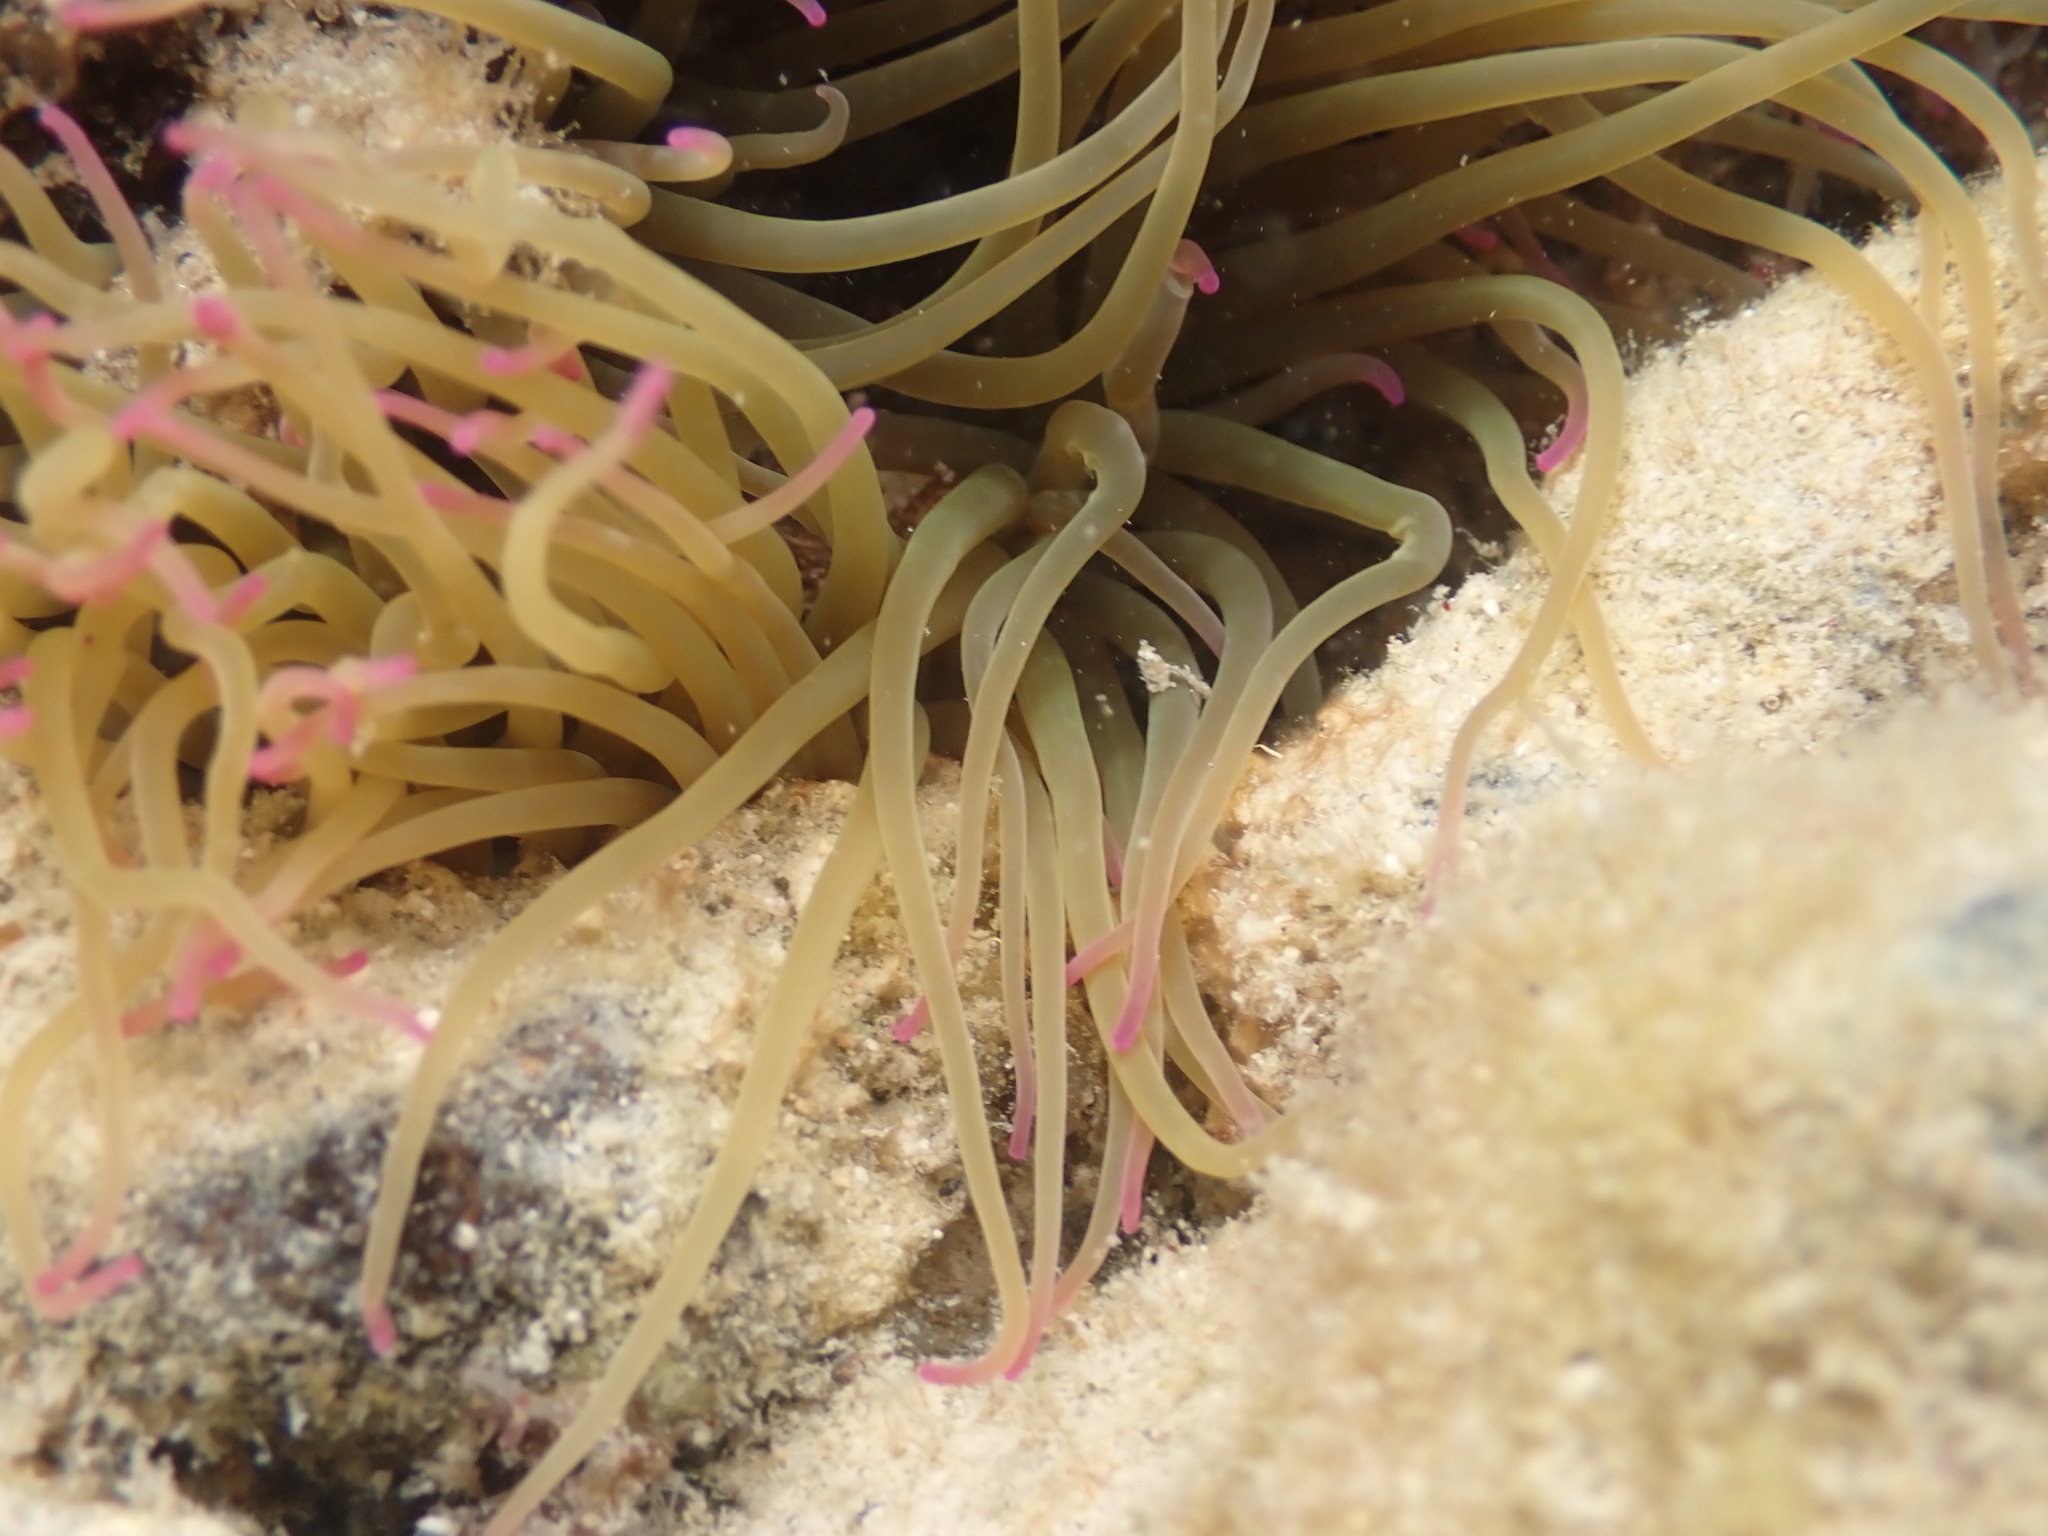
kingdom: Animalia
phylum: Cnidaria
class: Anthozoa
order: Actiniaria
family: Actiniidae
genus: Anemonia
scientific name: Anemonia viridis
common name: Snakelocks anemone
